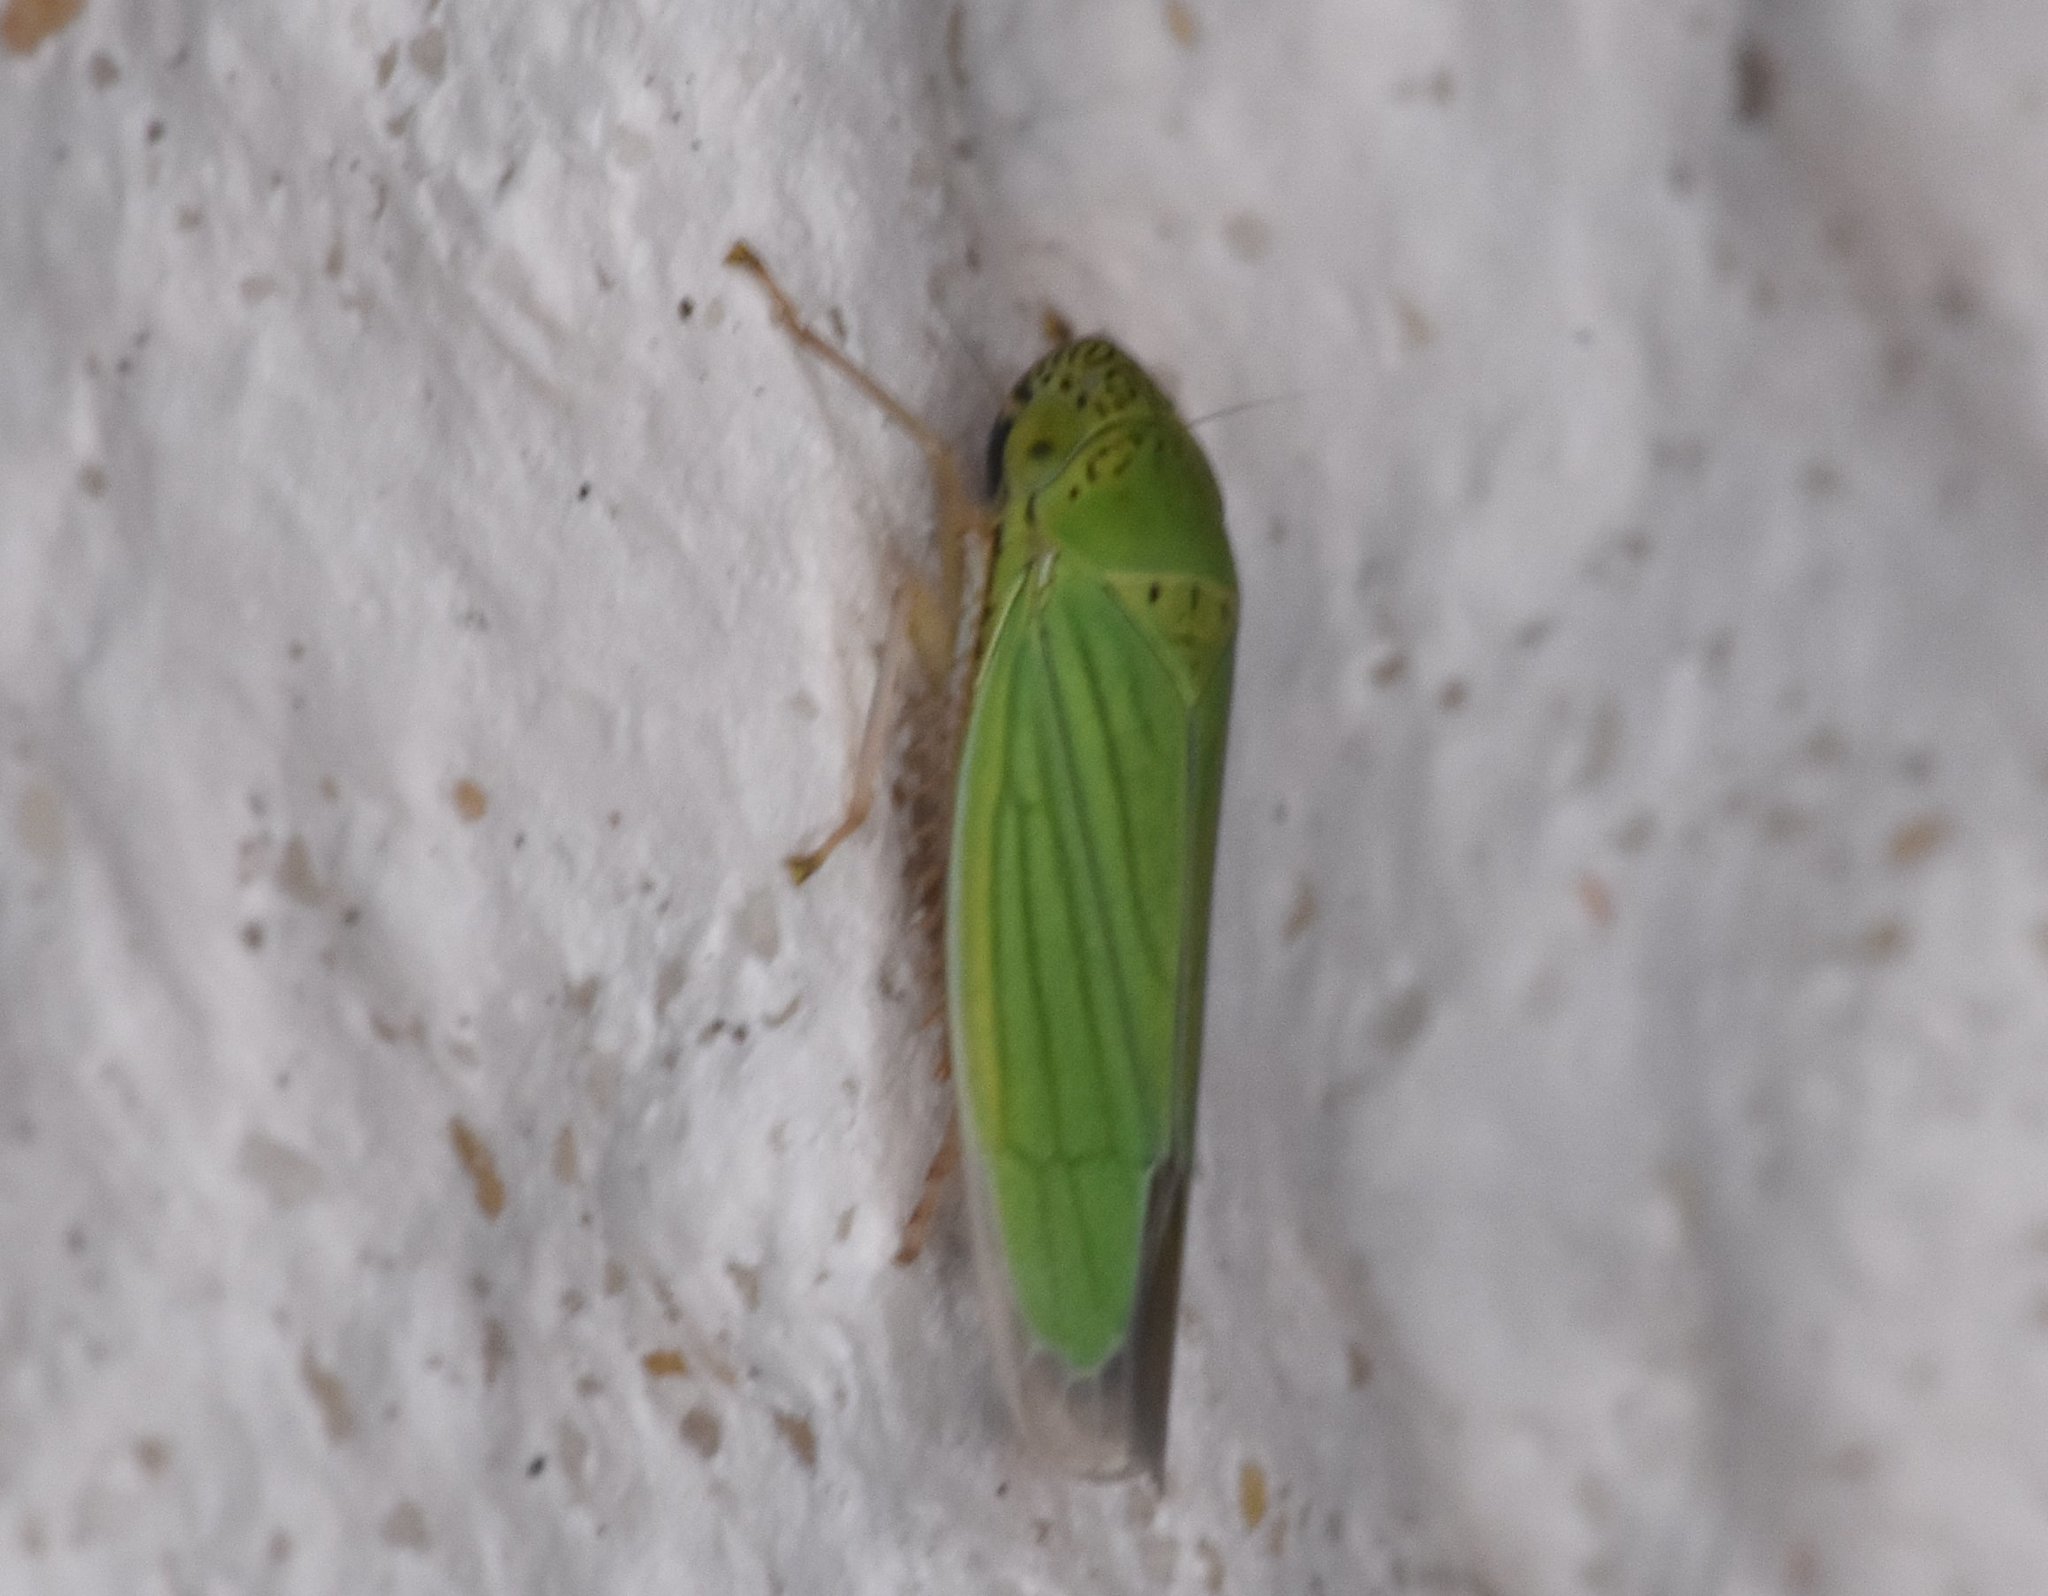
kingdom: Animalia
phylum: Arthropoda
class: Insecta
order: Hemiptera
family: Cicadellidae
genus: Hortensia
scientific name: Hortensia similis
